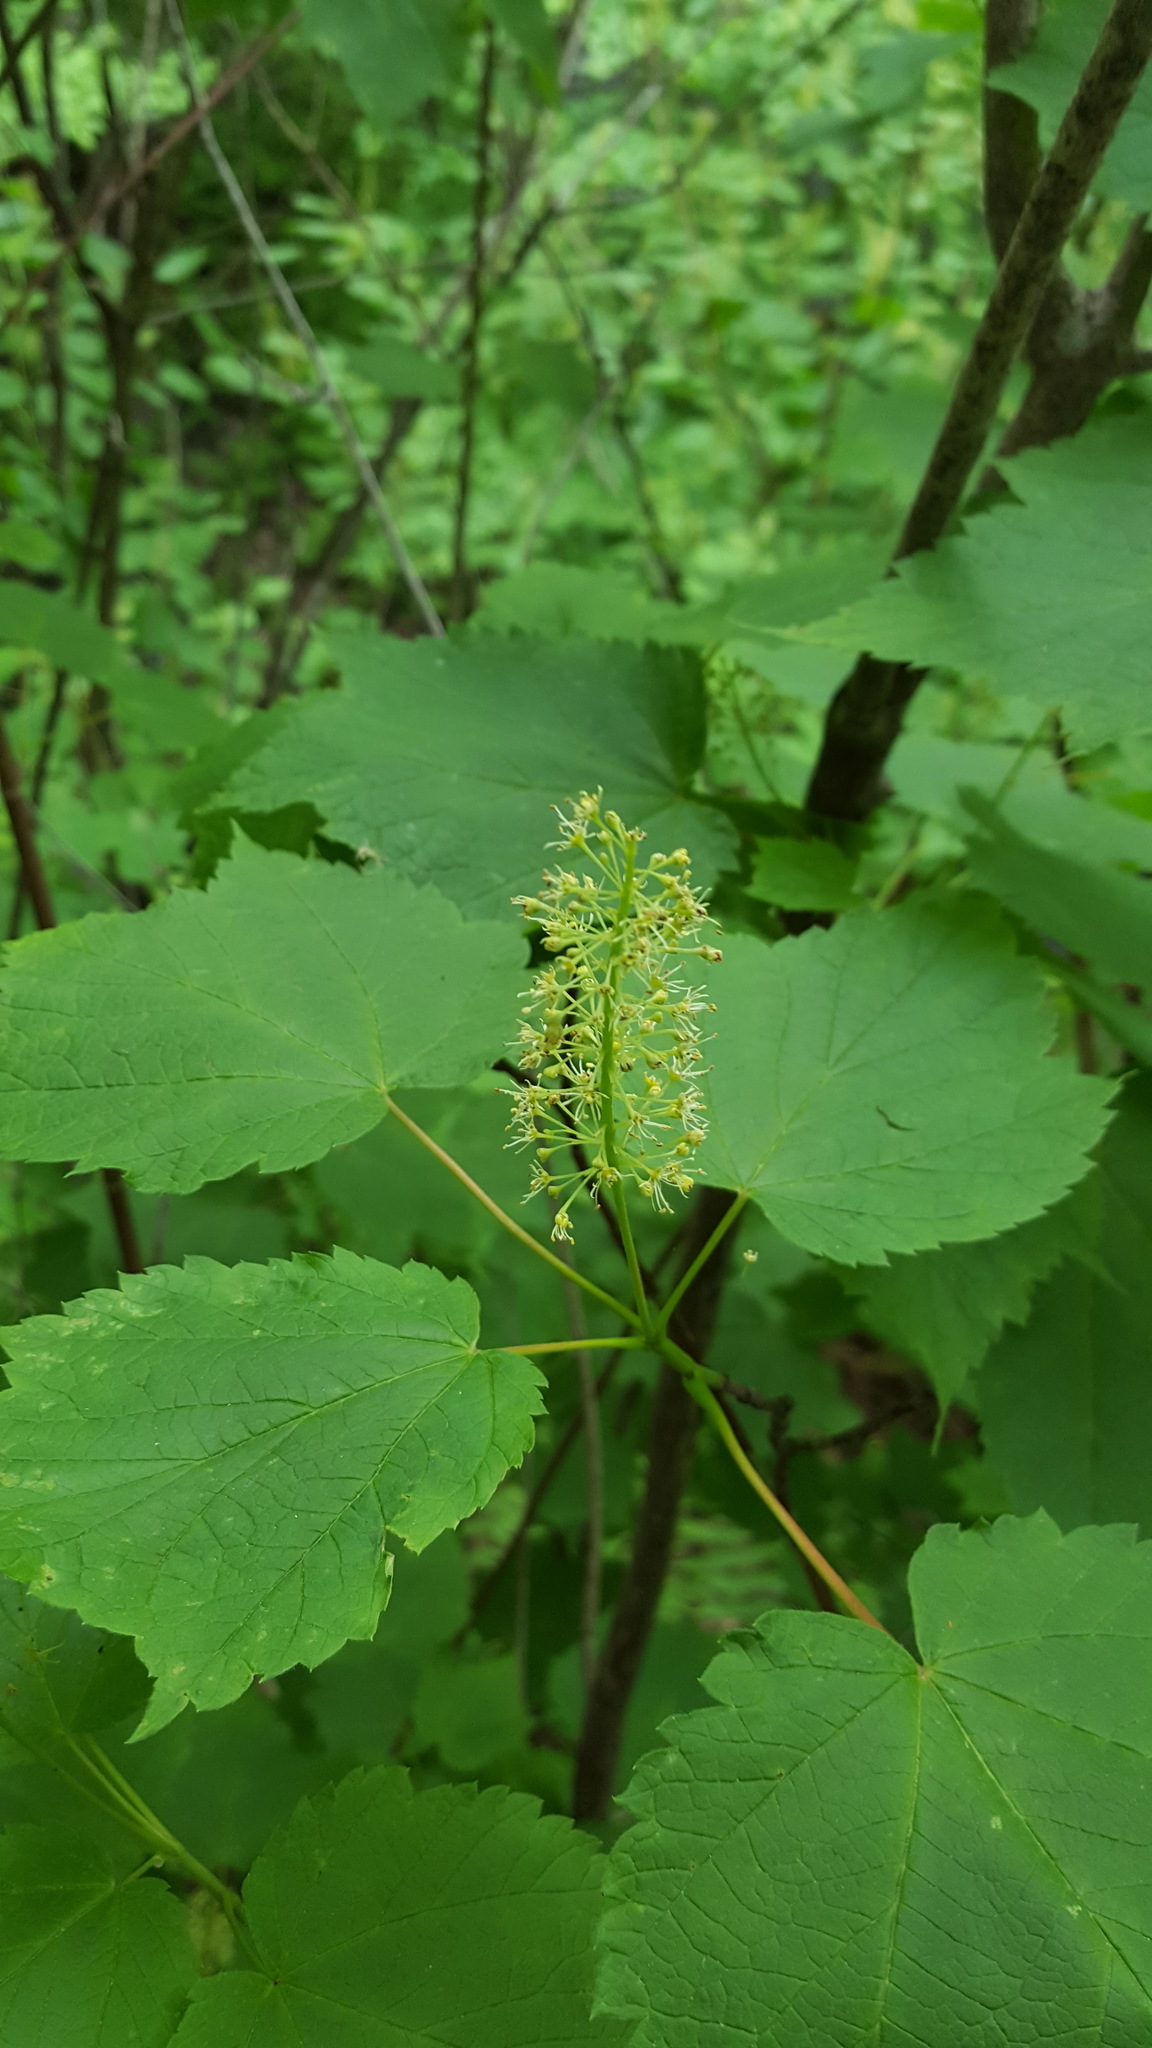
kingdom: Plantae
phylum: Tracheophyta
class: Magnoliopsida
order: Sapindales
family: Sapindaceae
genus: Acer
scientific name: Acer spicatum
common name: Mountain maple
